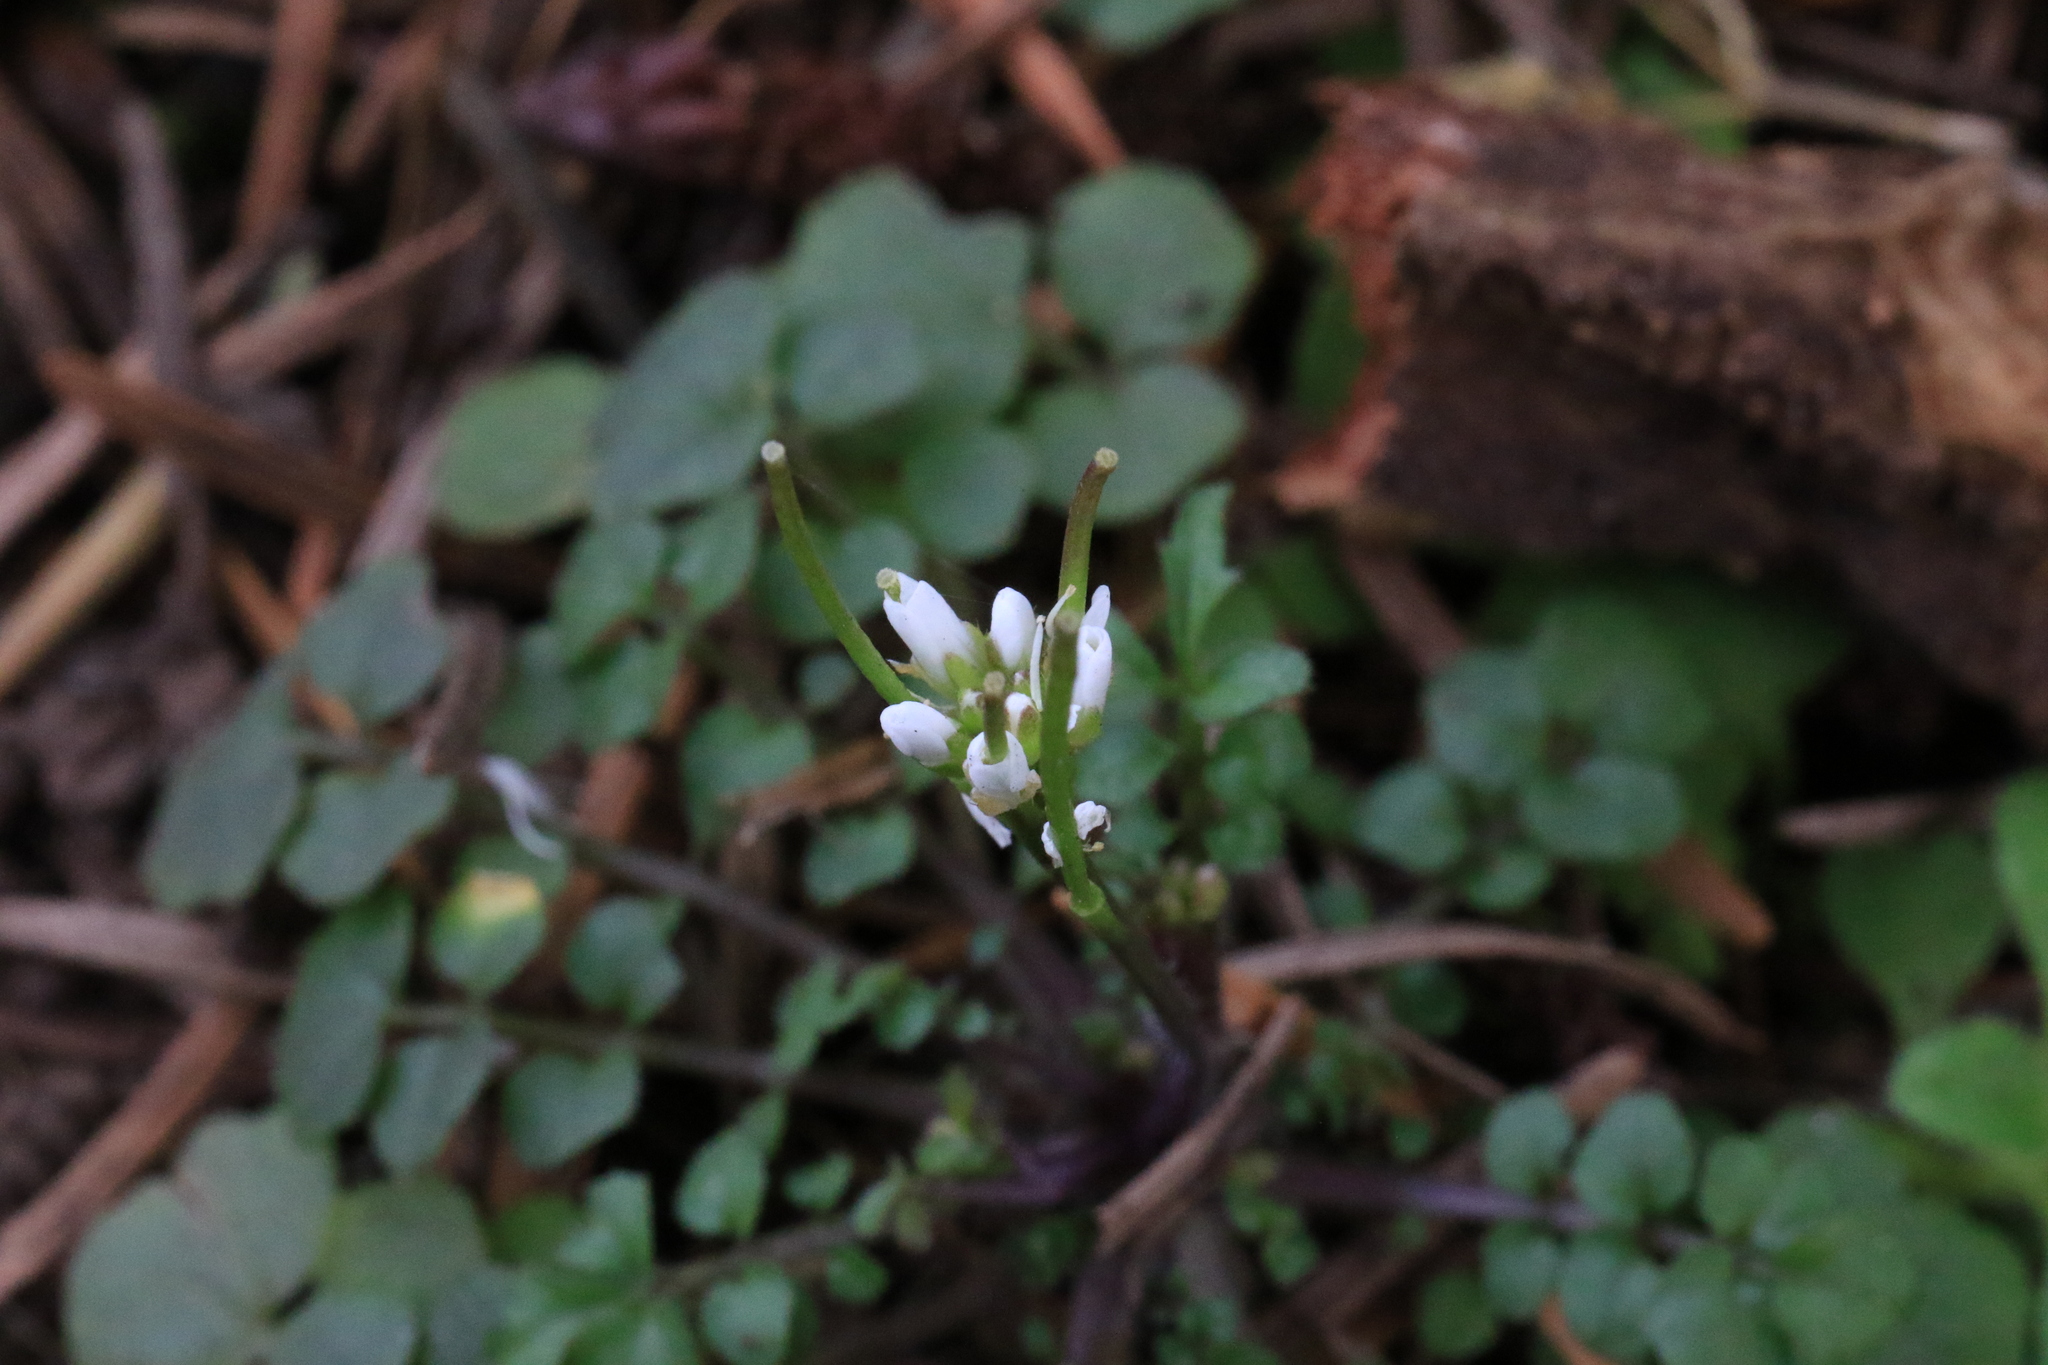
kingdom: Plantae
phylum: Tracheophyta
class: Magnoliopsida
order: Brassicales
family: Brassicaceae
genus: Cardamine
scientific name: Cardamine hirsuta
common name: Hairy bittercress
